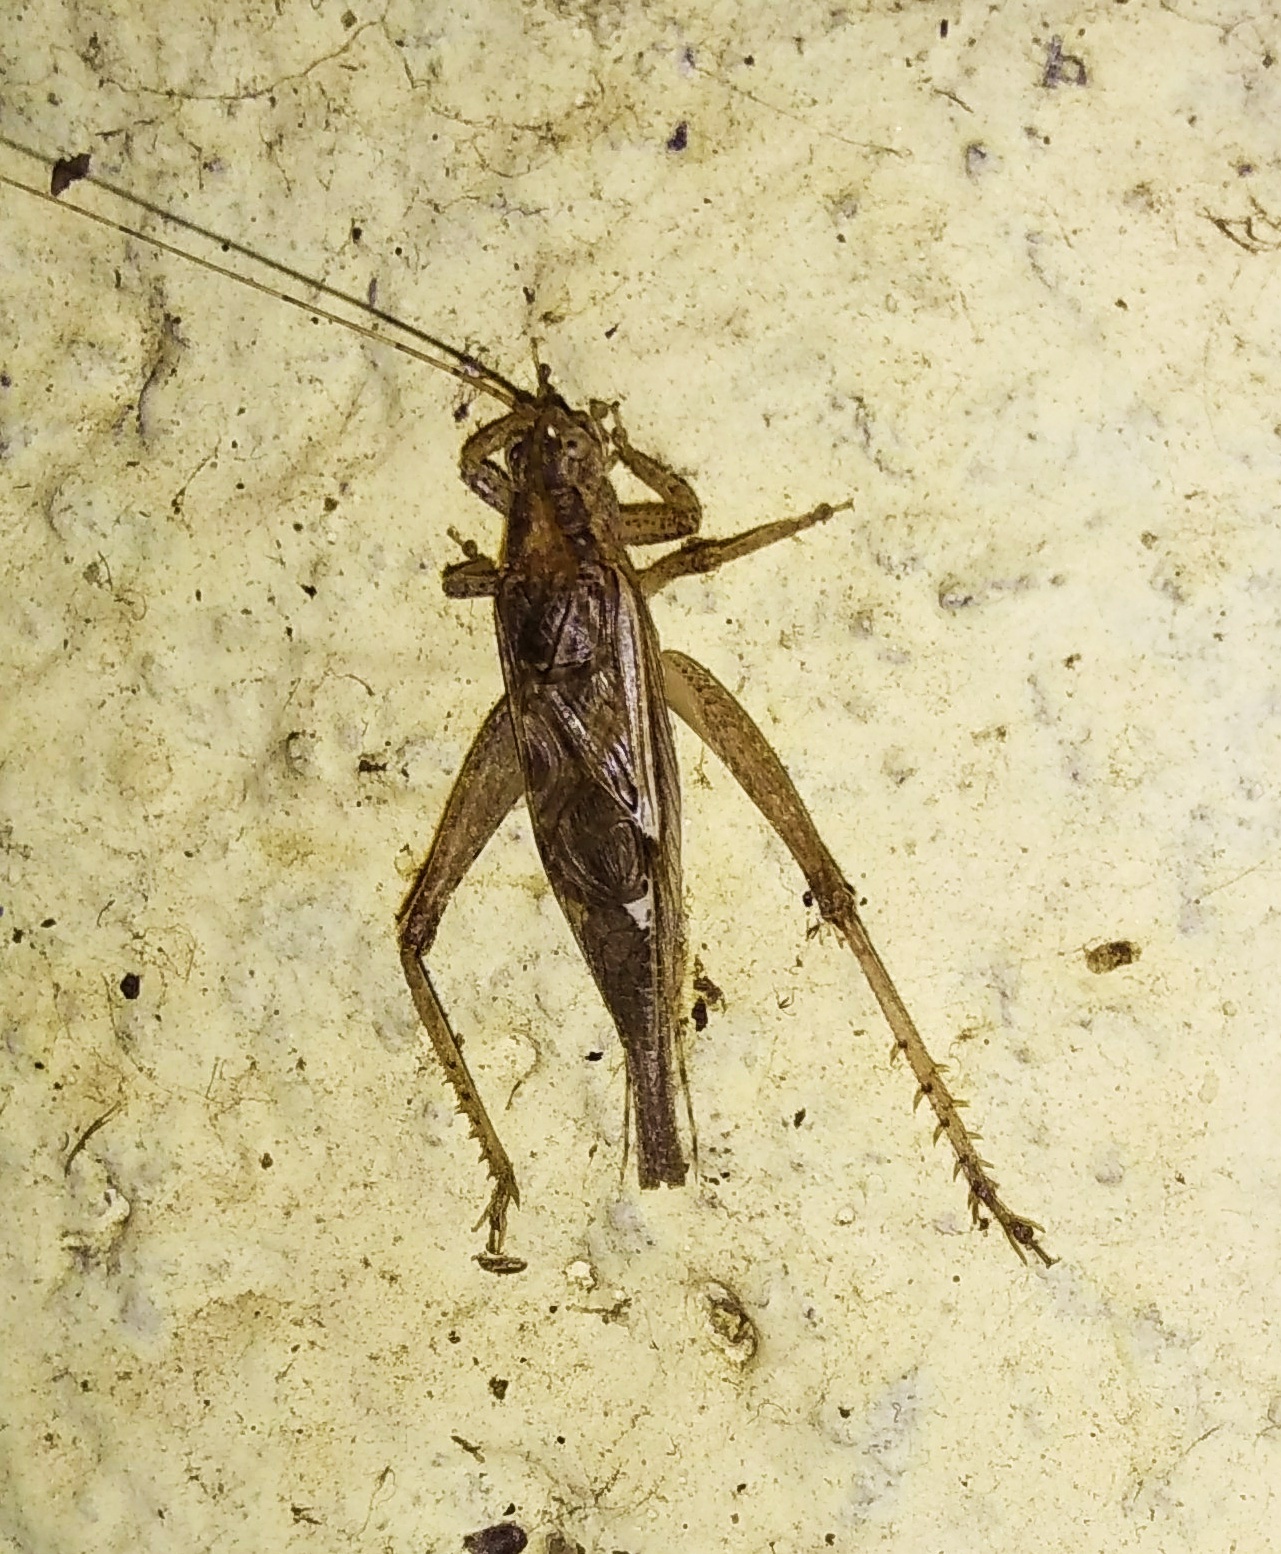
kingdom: Animalia
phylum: Arthropoda
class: Insecta
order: Orthoptera
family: Gryllidae
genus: Gryllodes
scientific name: Gryllodes sigillatus
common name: Tropical house cricket
